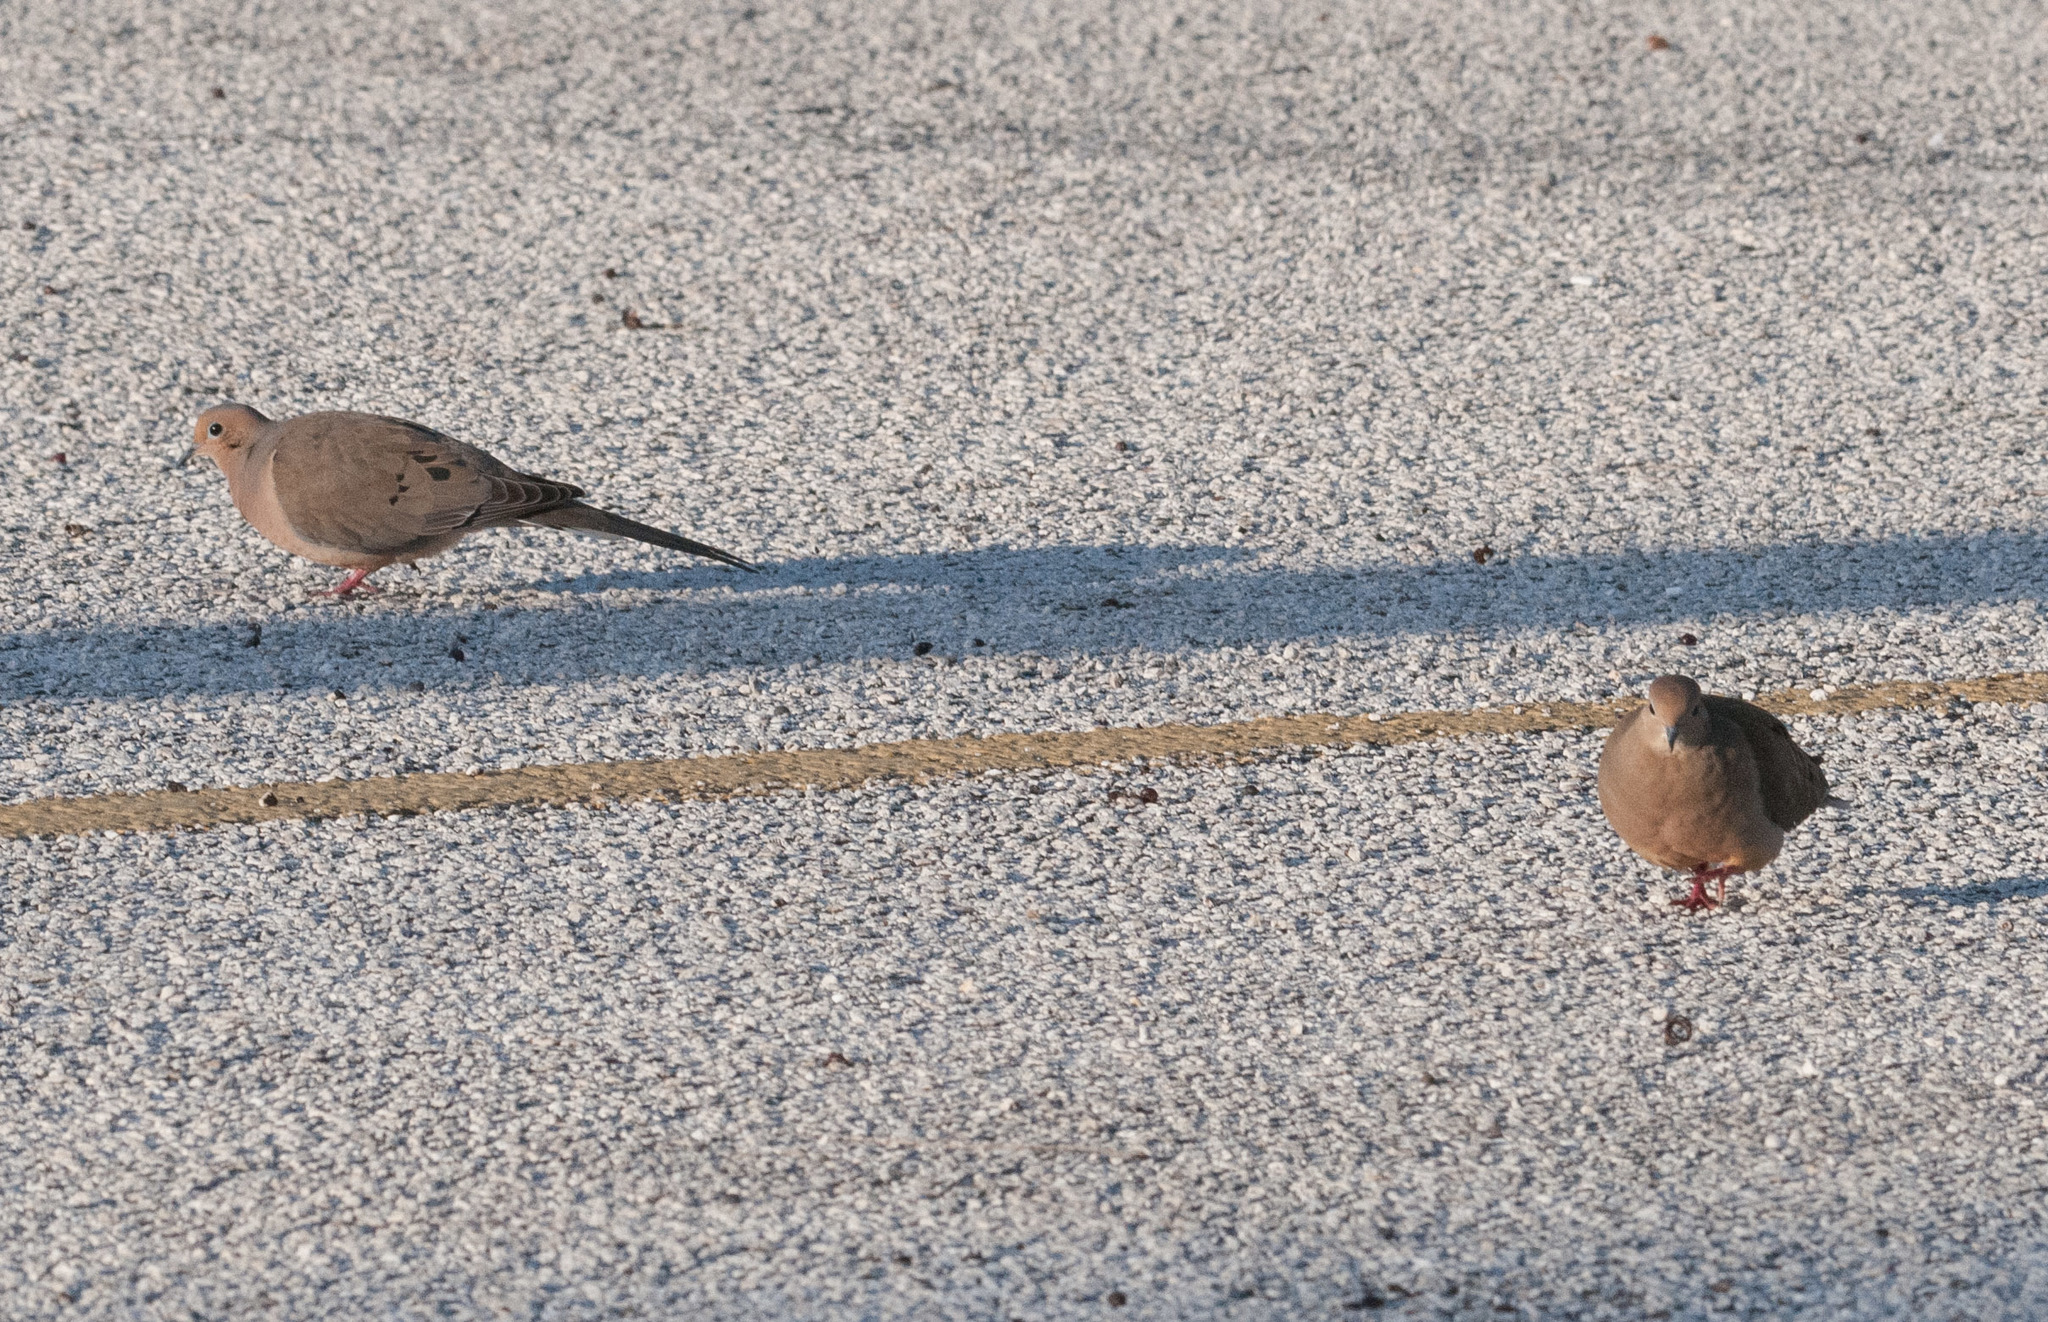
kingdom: Animalia
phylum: Chordata
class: Aves
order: Columbiformes
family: Columbidae
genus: Zenaida
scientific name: Zenaida macroura
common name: Mourning dove
